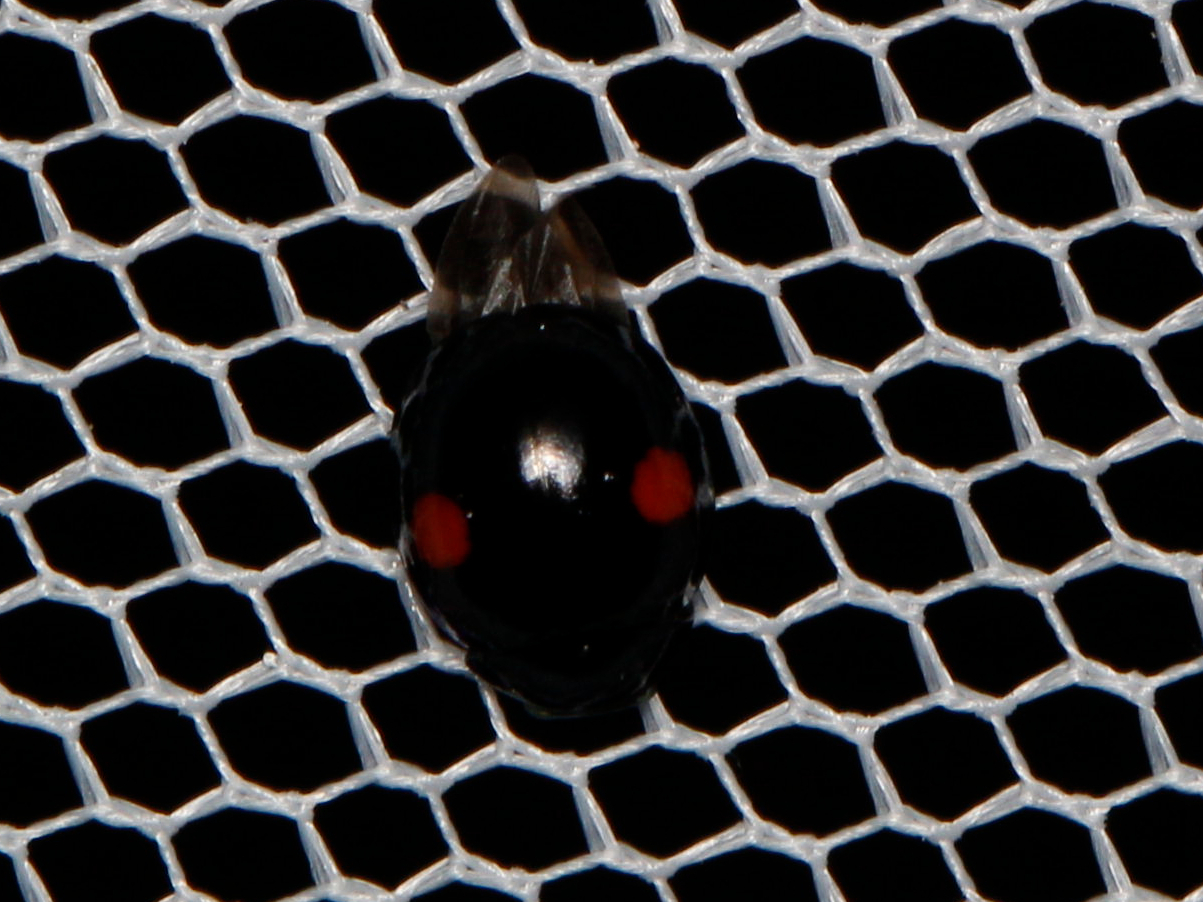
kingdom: Animalia
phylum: Arthropoda
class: Insecta
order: Coleoptera
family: Coccinellidae
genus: Chilocorus
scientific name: Chilocorus stigma
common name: Twicestabbed lady beetle
